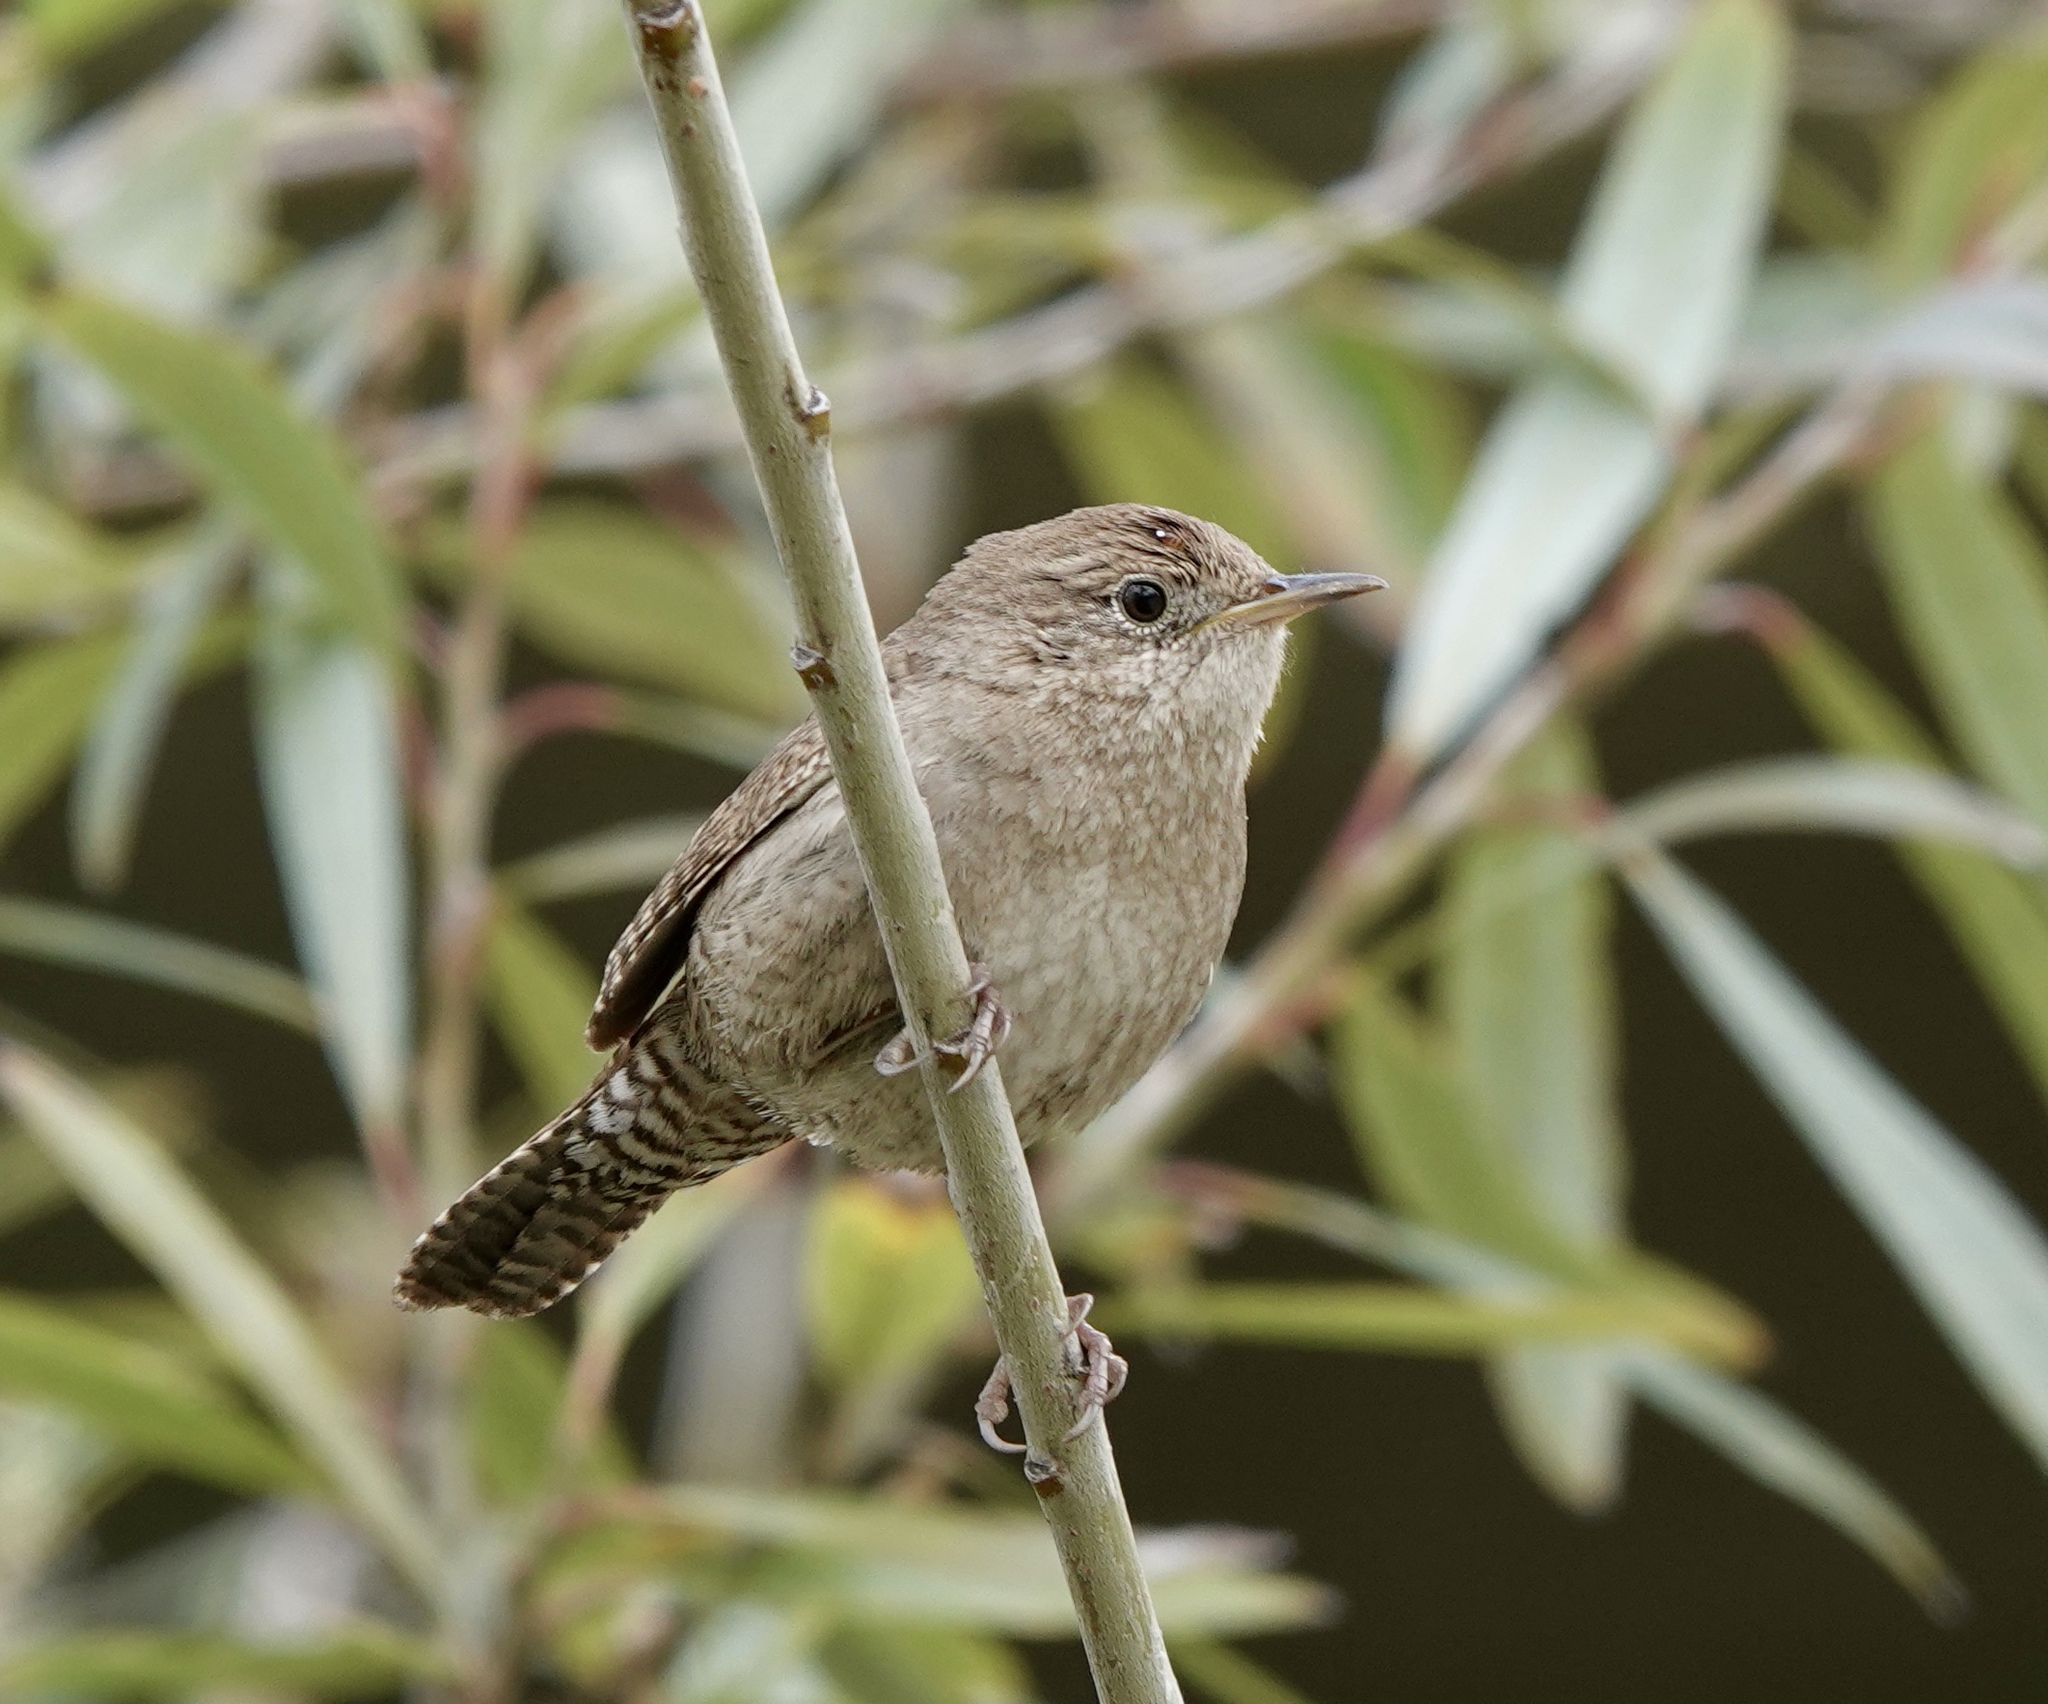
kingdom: Animalia
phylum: Chordata
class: Aves
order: Passeriformes
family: Troglodytidae
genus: Troglodytes
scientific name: Troglodytes aedon
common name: House wren
